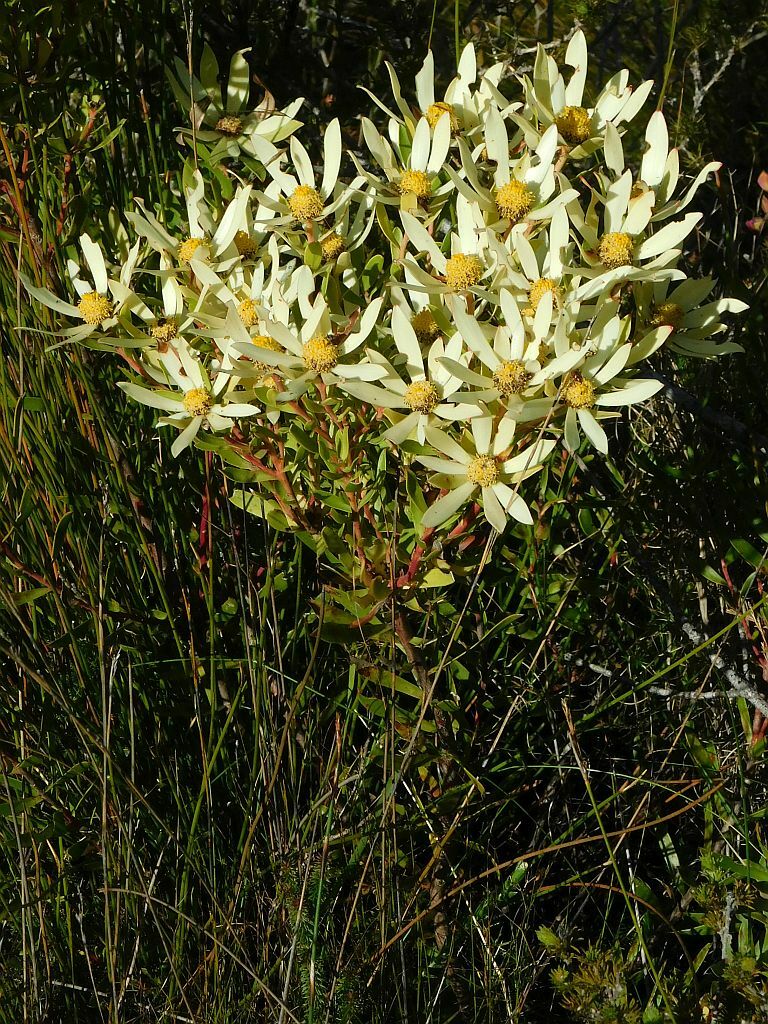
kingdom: Plantae
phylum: Tracheophyta
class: Magnoliopsida
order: Proteales
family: Proteaceae
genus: Leucadendron
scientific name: Leucadendron spissifolium
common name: Spear-leaf conebush
